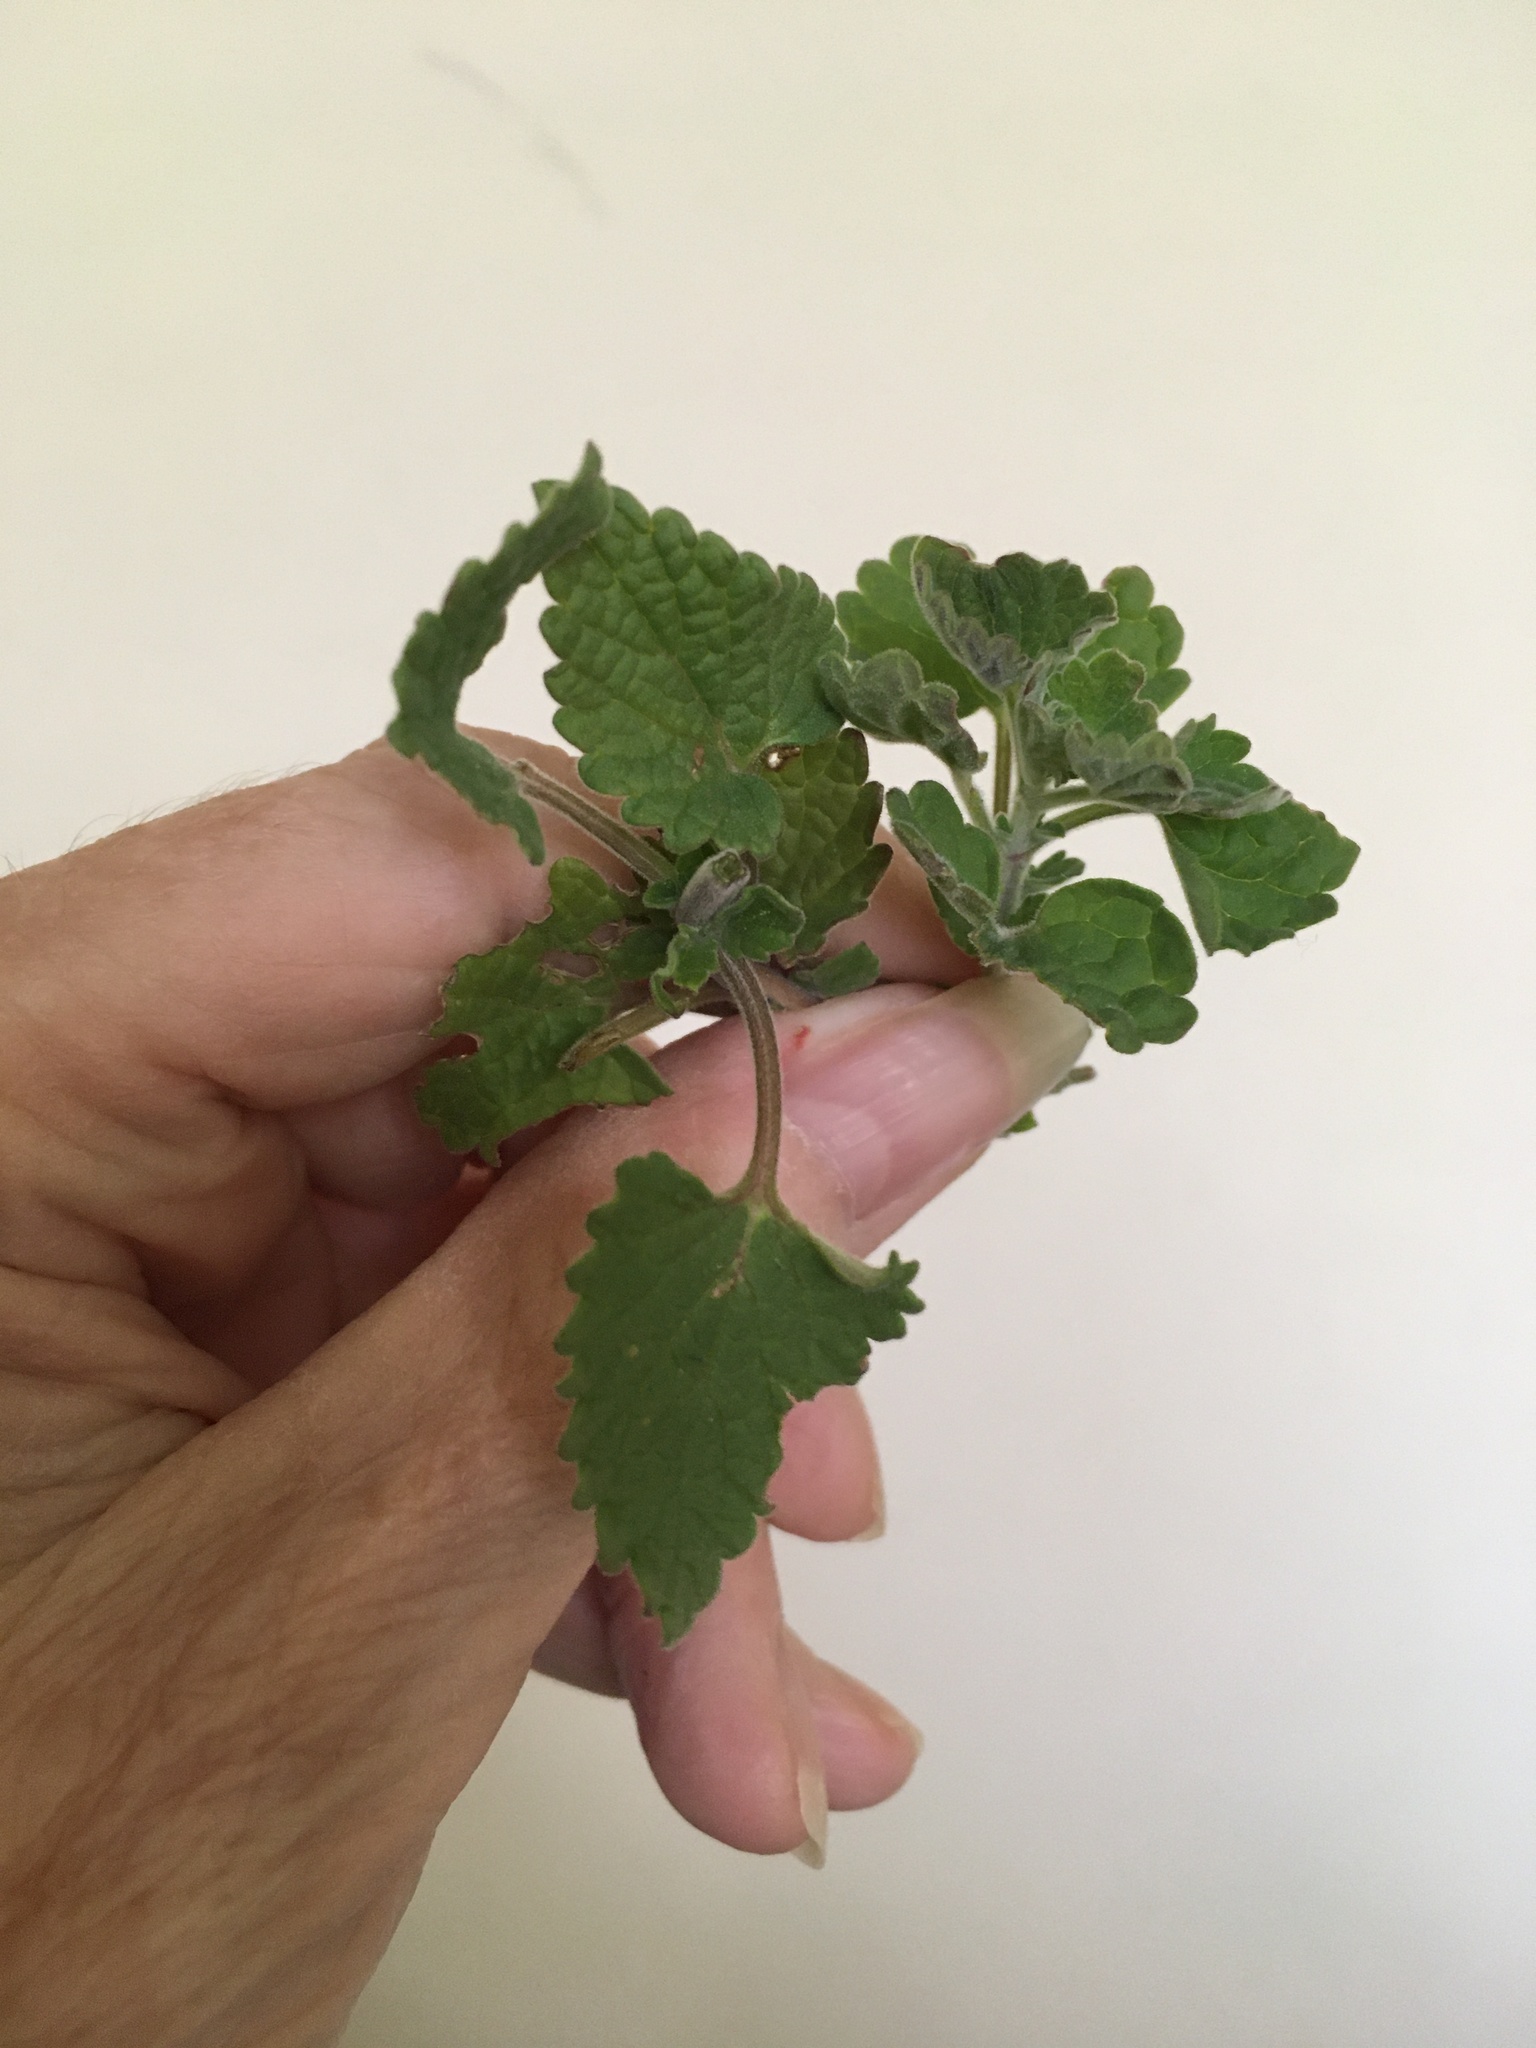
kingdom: Plantae
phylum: Tracheophyta
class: Magnoliopsida
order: Lamiales
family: Lamiaceae
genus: Nepeta
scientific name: Nepeta cataria
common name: Catnip
